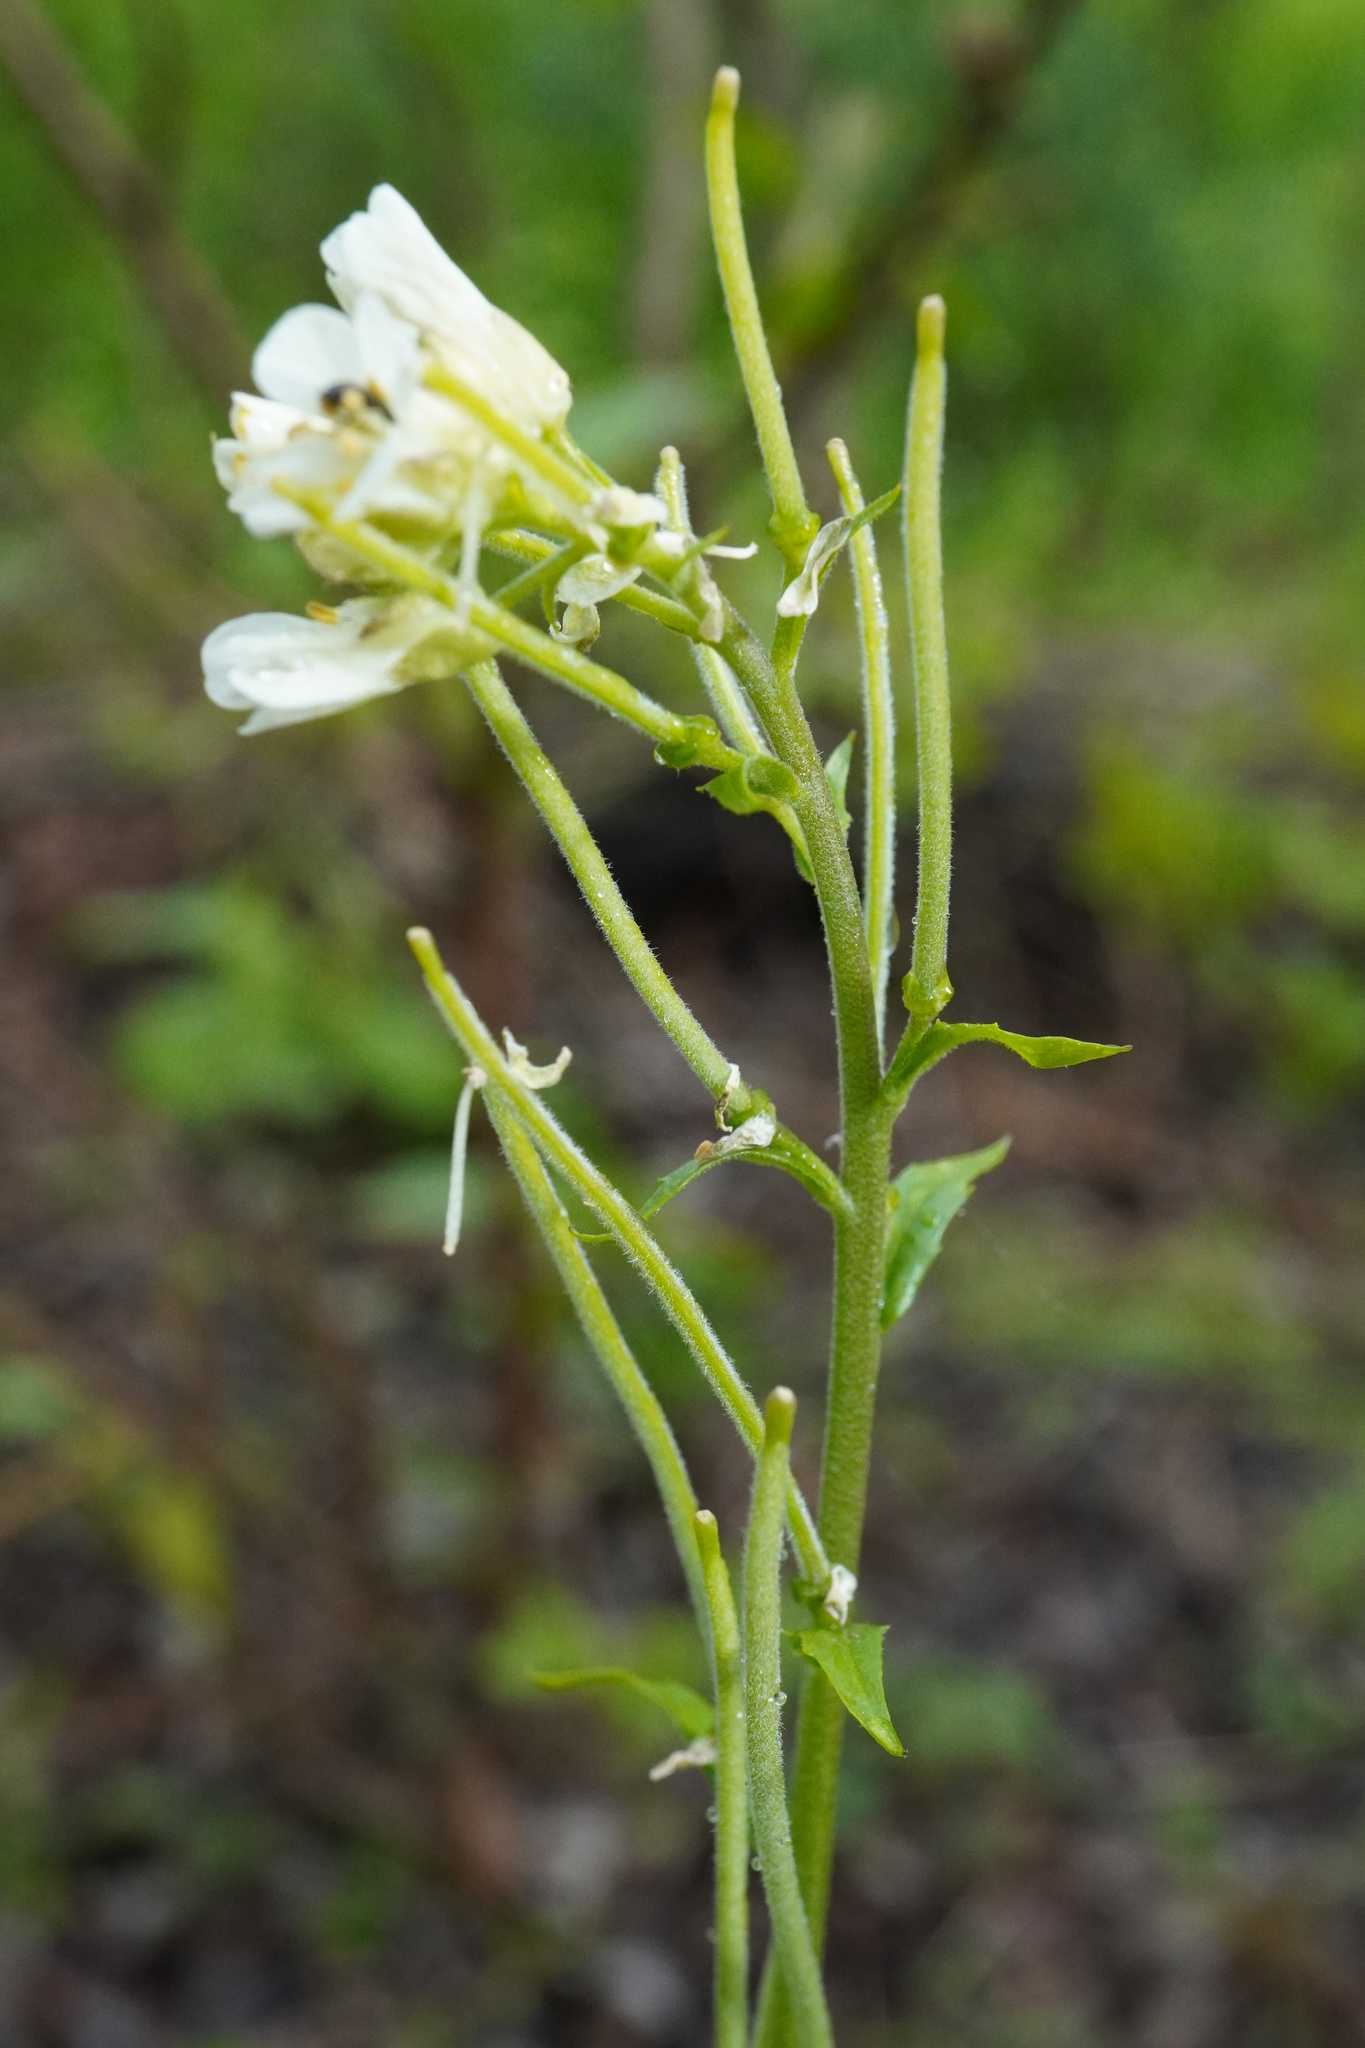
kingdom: Plantae
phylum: Tracheophyta
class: Magnoliopsida
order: Brassicales
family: Brassicaceae
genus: Pseudoturritis
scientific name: Pseudoturritis turrita
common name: Tower cress
